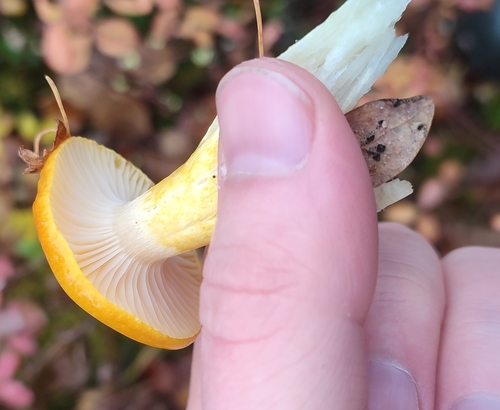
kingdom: Fungi
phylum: Basidiomycota
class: Agaricomycetes
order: Agaricales
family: Hygrophoraceae
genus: Hygrophorus
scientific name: Hygrophorus speciosus
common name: Splendid woodwax
